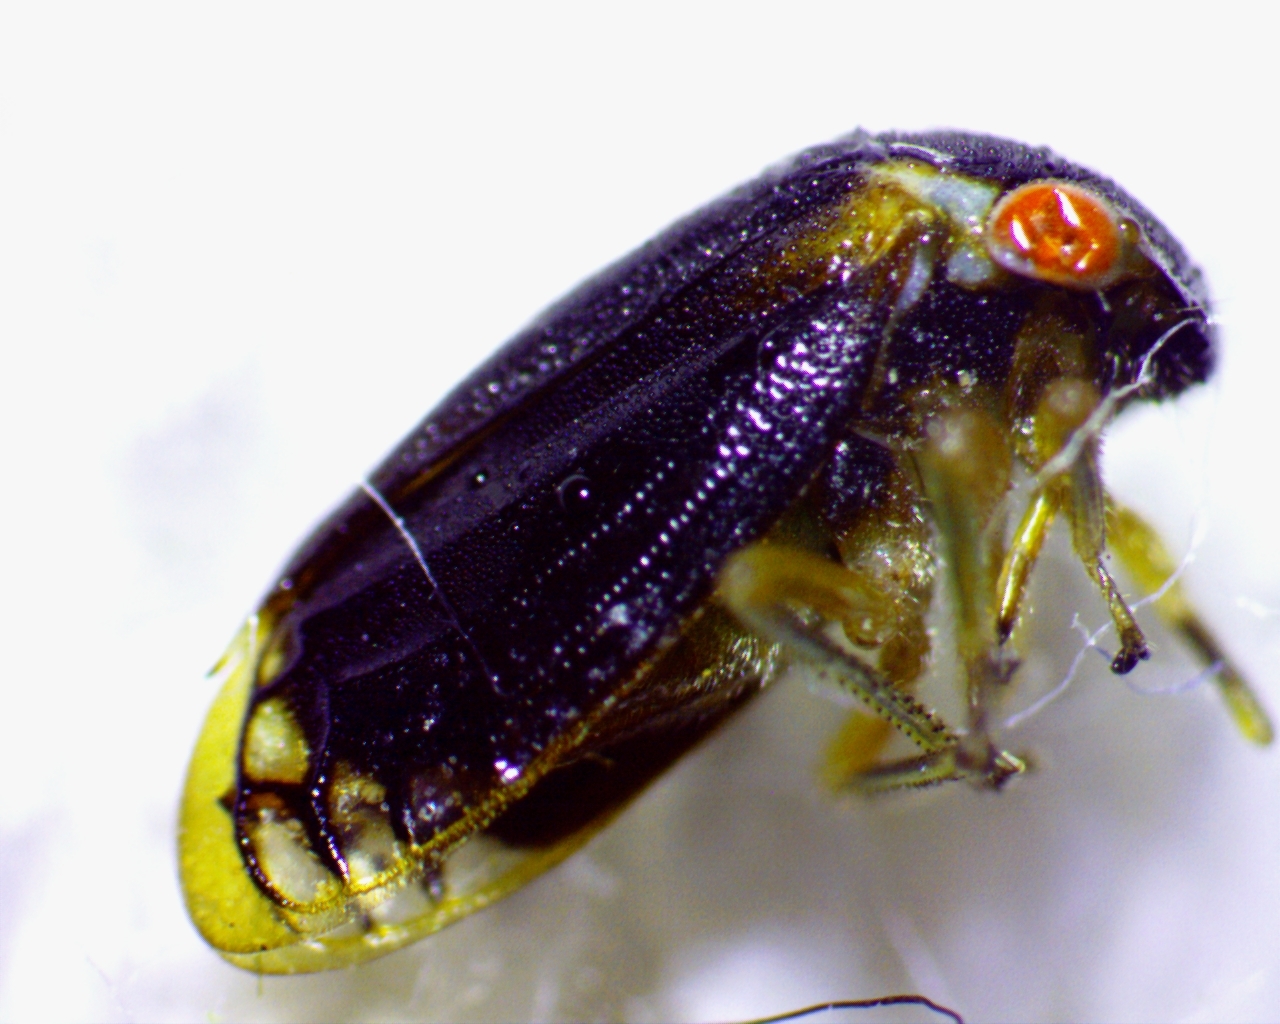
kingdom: Animalia
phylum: Arthropoda
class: Insecta
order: Hemiptera
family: Membracidae
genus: Acutalis
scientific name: Acutalis tartarea
